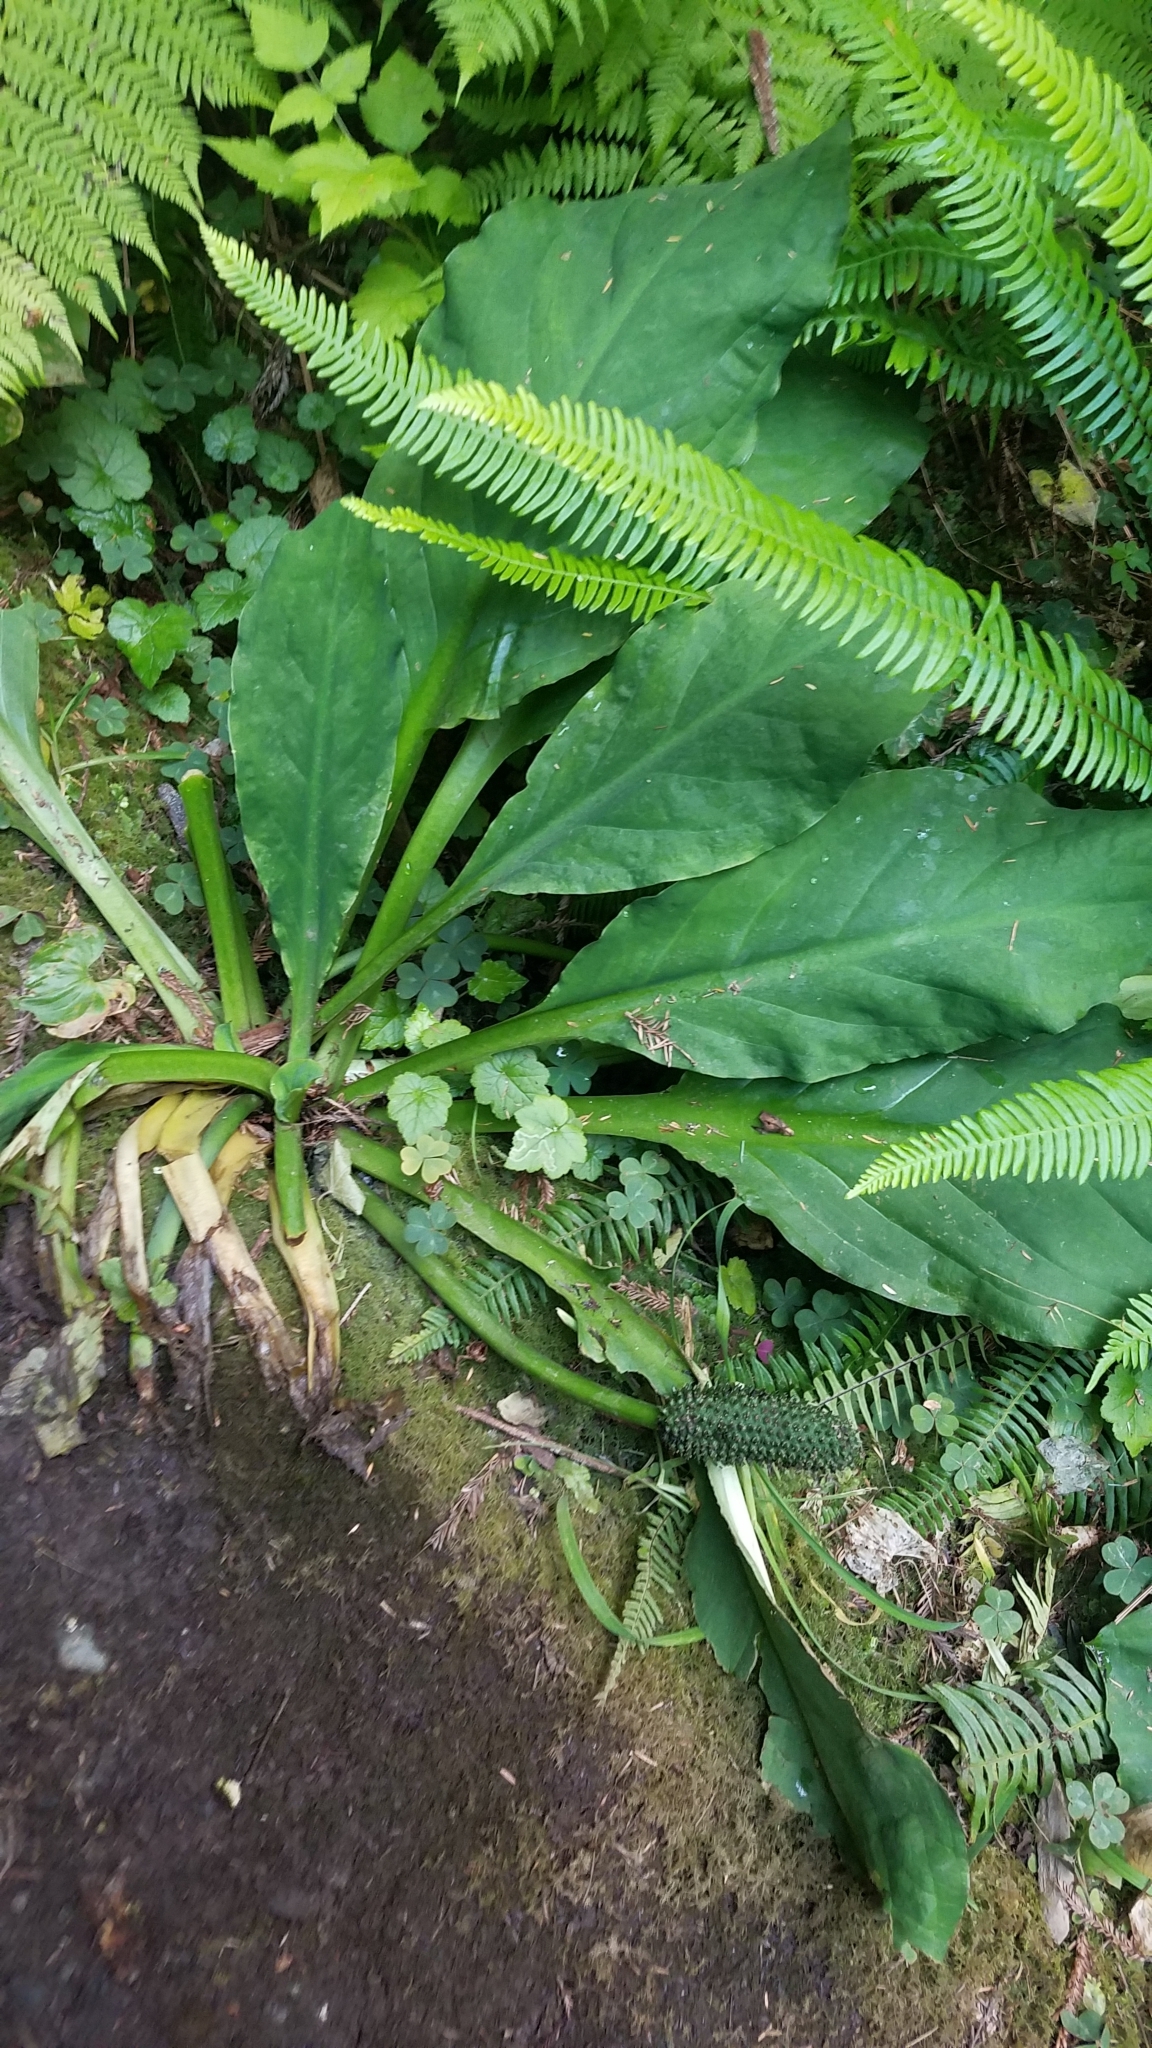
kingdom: Plantae
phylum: Tracheophyta
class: Liliopsida
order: Alismatales
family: Araceae
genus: Lysichiton
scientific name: Lysichiton americanus
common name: American skunk cabbage
